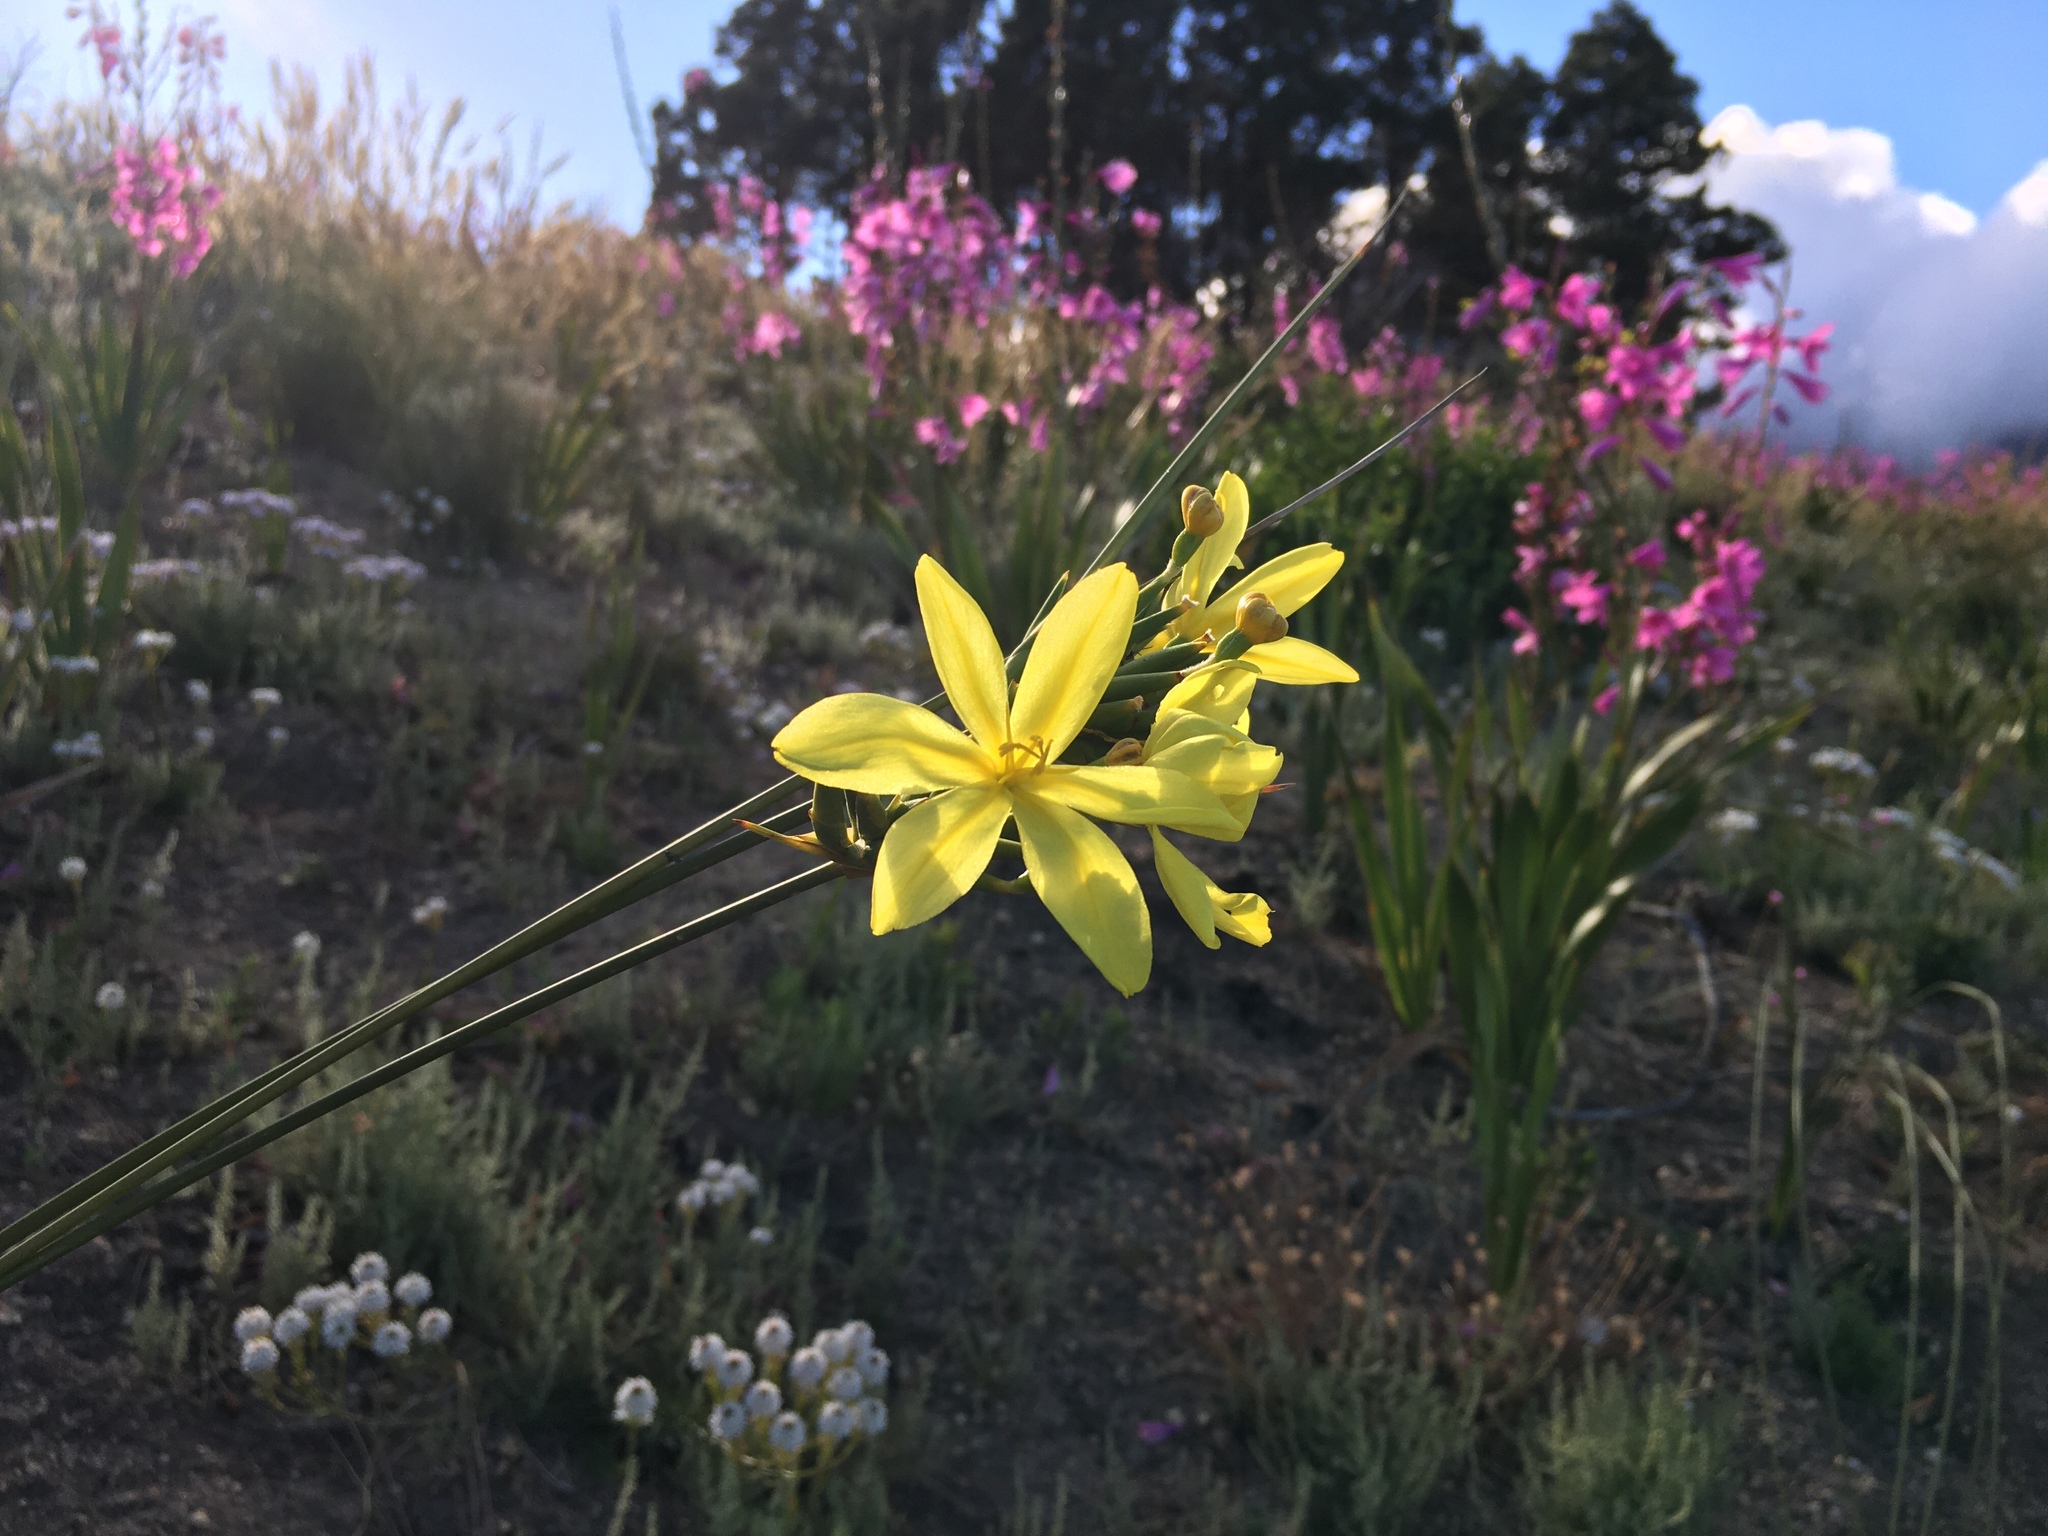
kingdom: Plantae
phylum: Tracheophyta
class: Liliopsida
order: Asparagales
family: Iridaceae
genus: Bobartia
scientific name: Bobartia indica
